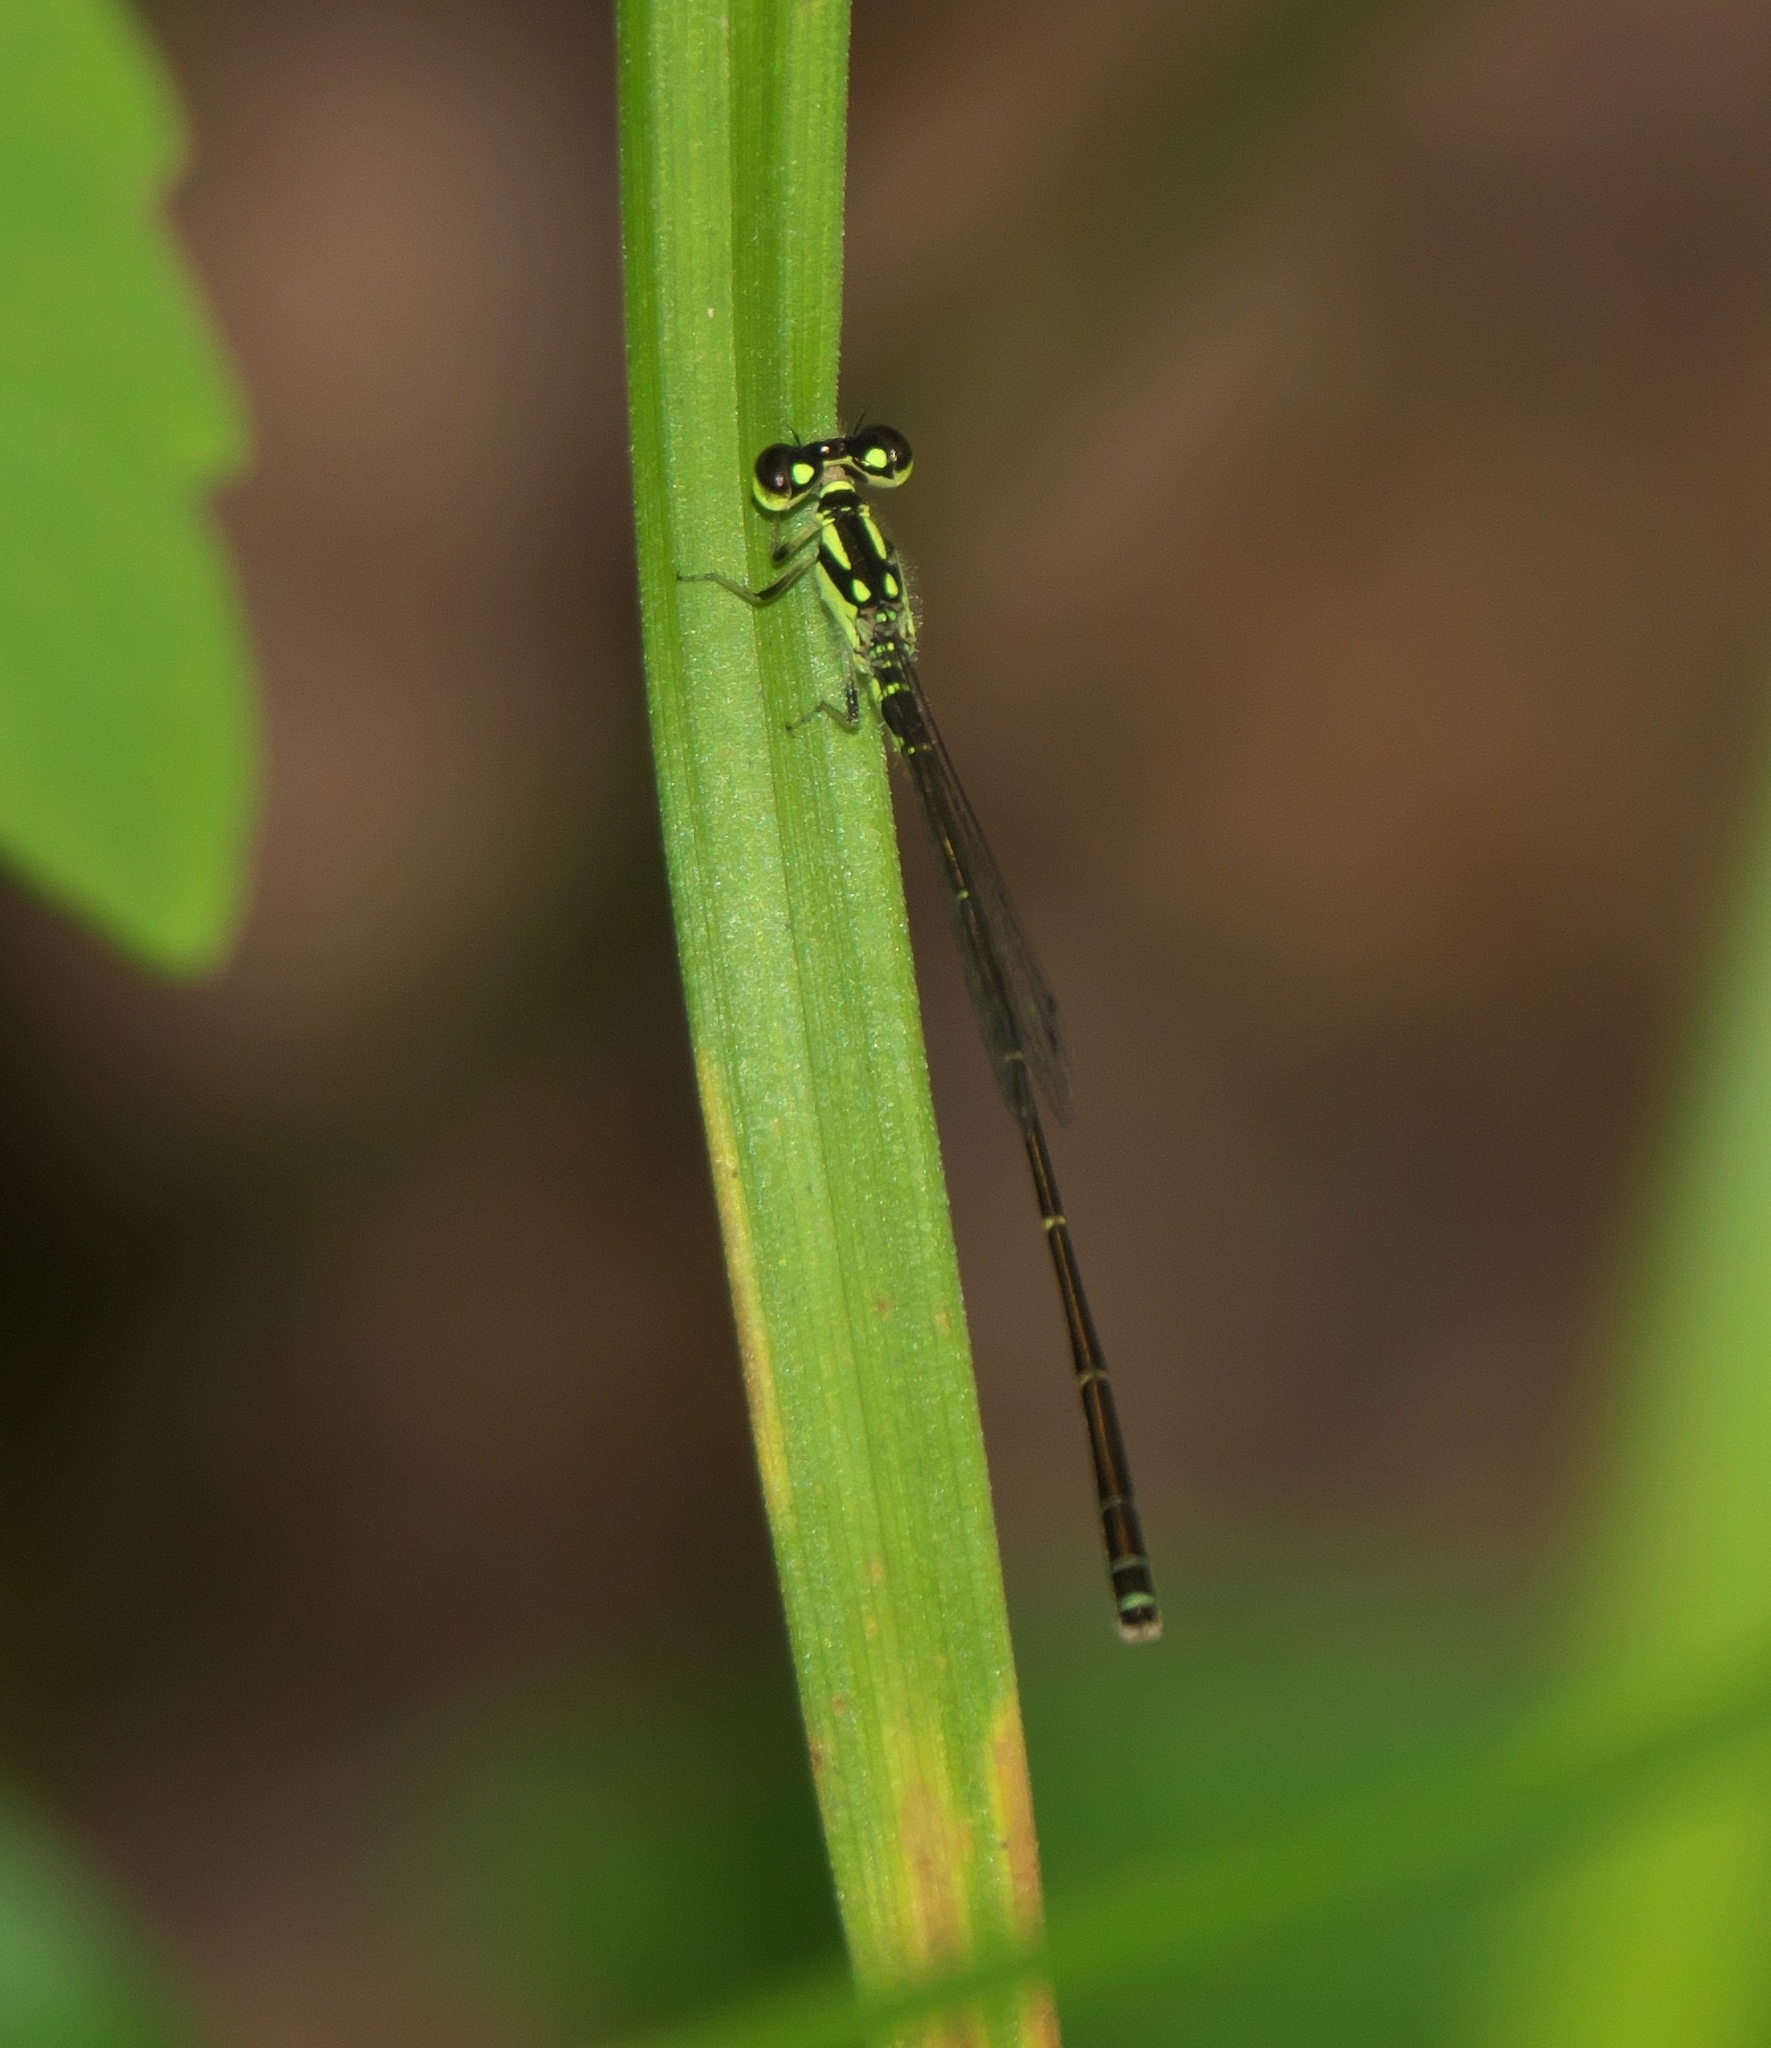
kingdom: Animalia
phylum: Arthropoda
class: Insecta
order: Odonata
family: Coenagrionidae
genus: Ischnura
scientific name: Ischnura posita
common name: Fragile forktail
